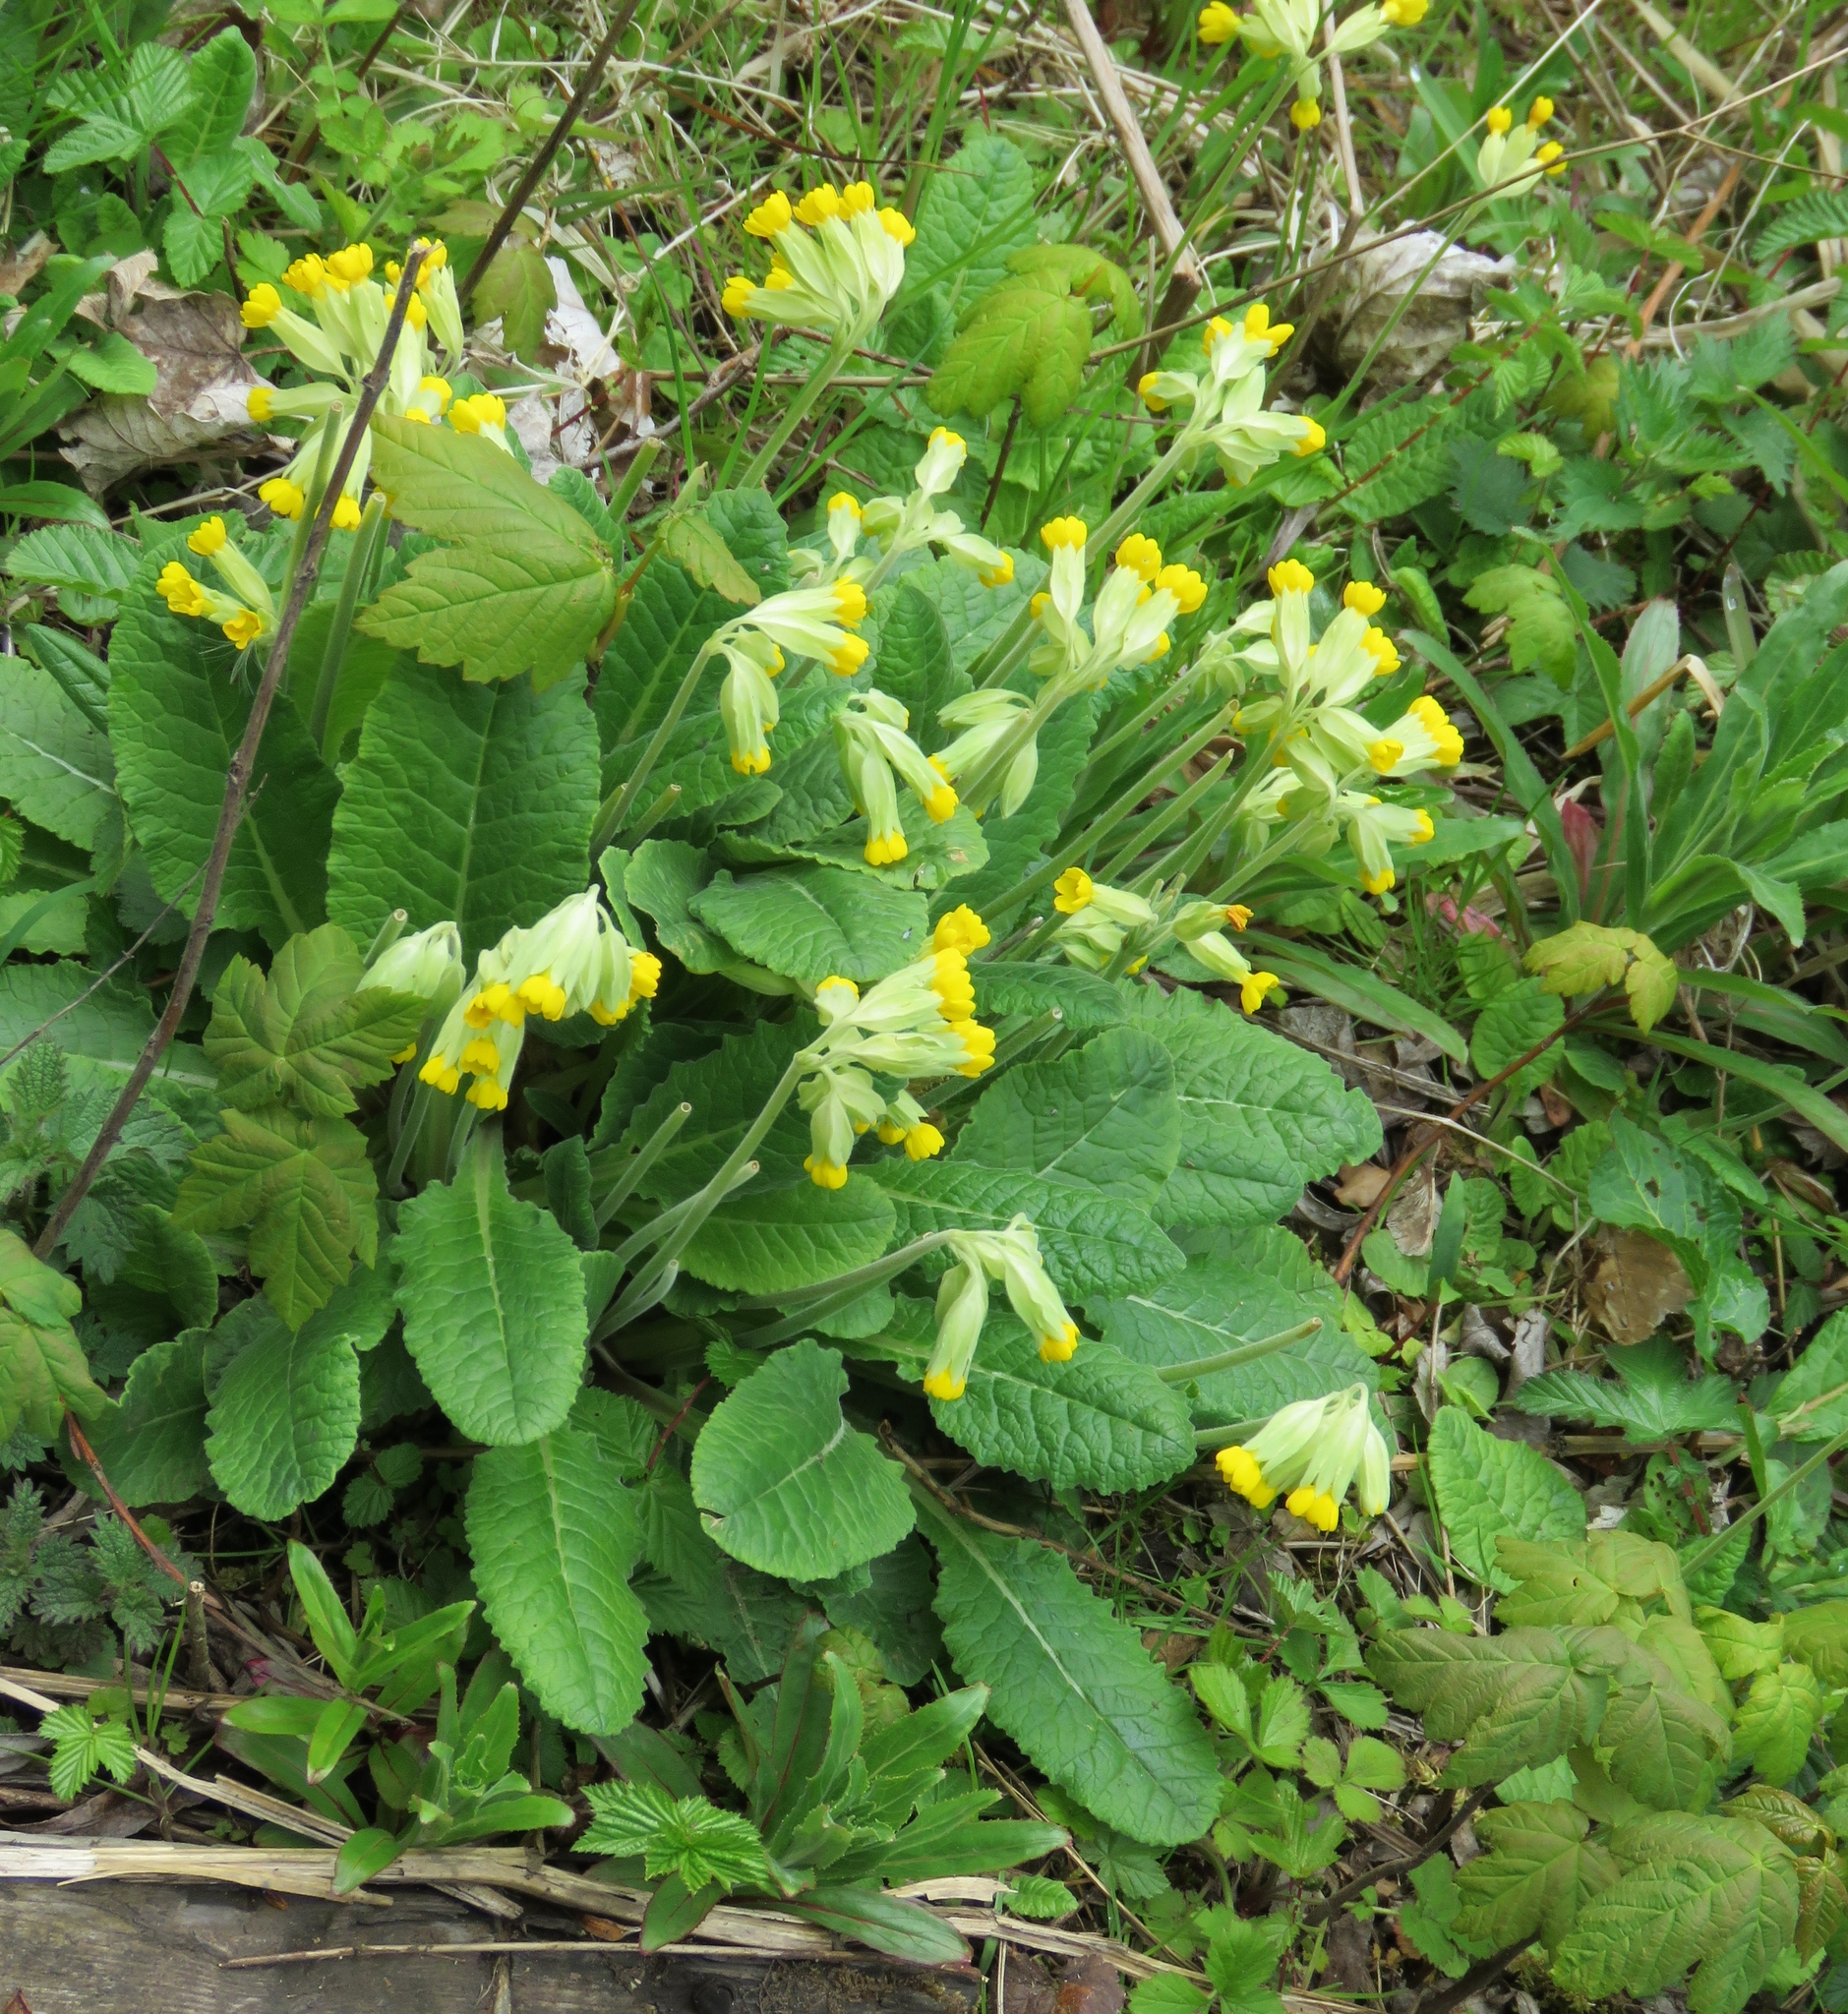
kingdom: Plantae
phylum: Tracheophyta
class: Magnoliopsida
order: Ericales
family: Primulaceae
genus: Primula
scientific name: Primula veris
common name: Cowslip
